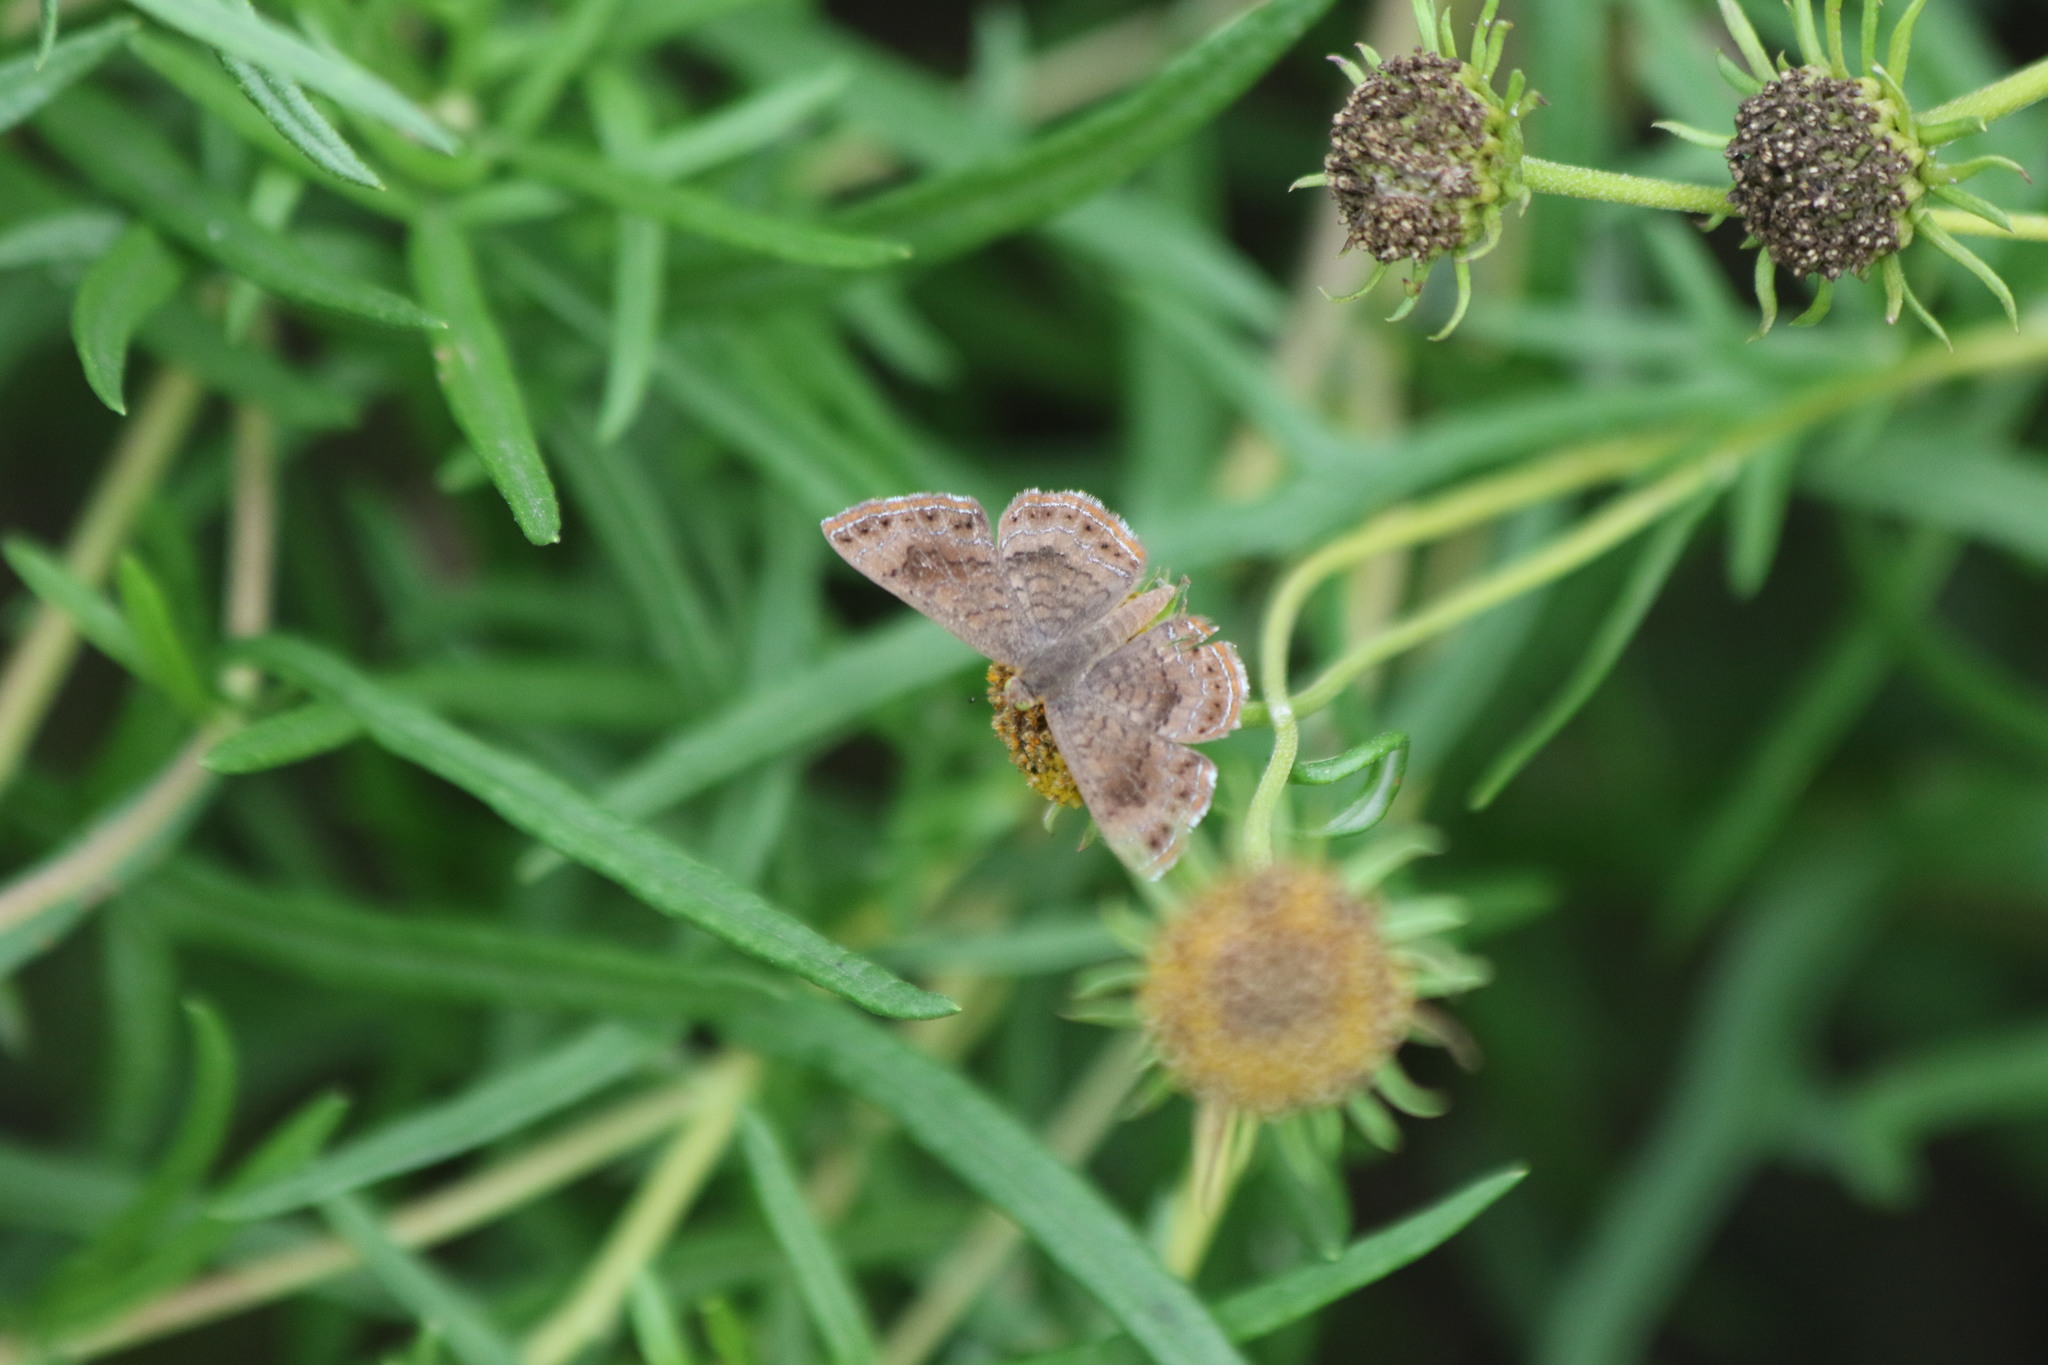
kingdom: Animalia
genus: Calephelis
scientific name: Calephelis nemesis
